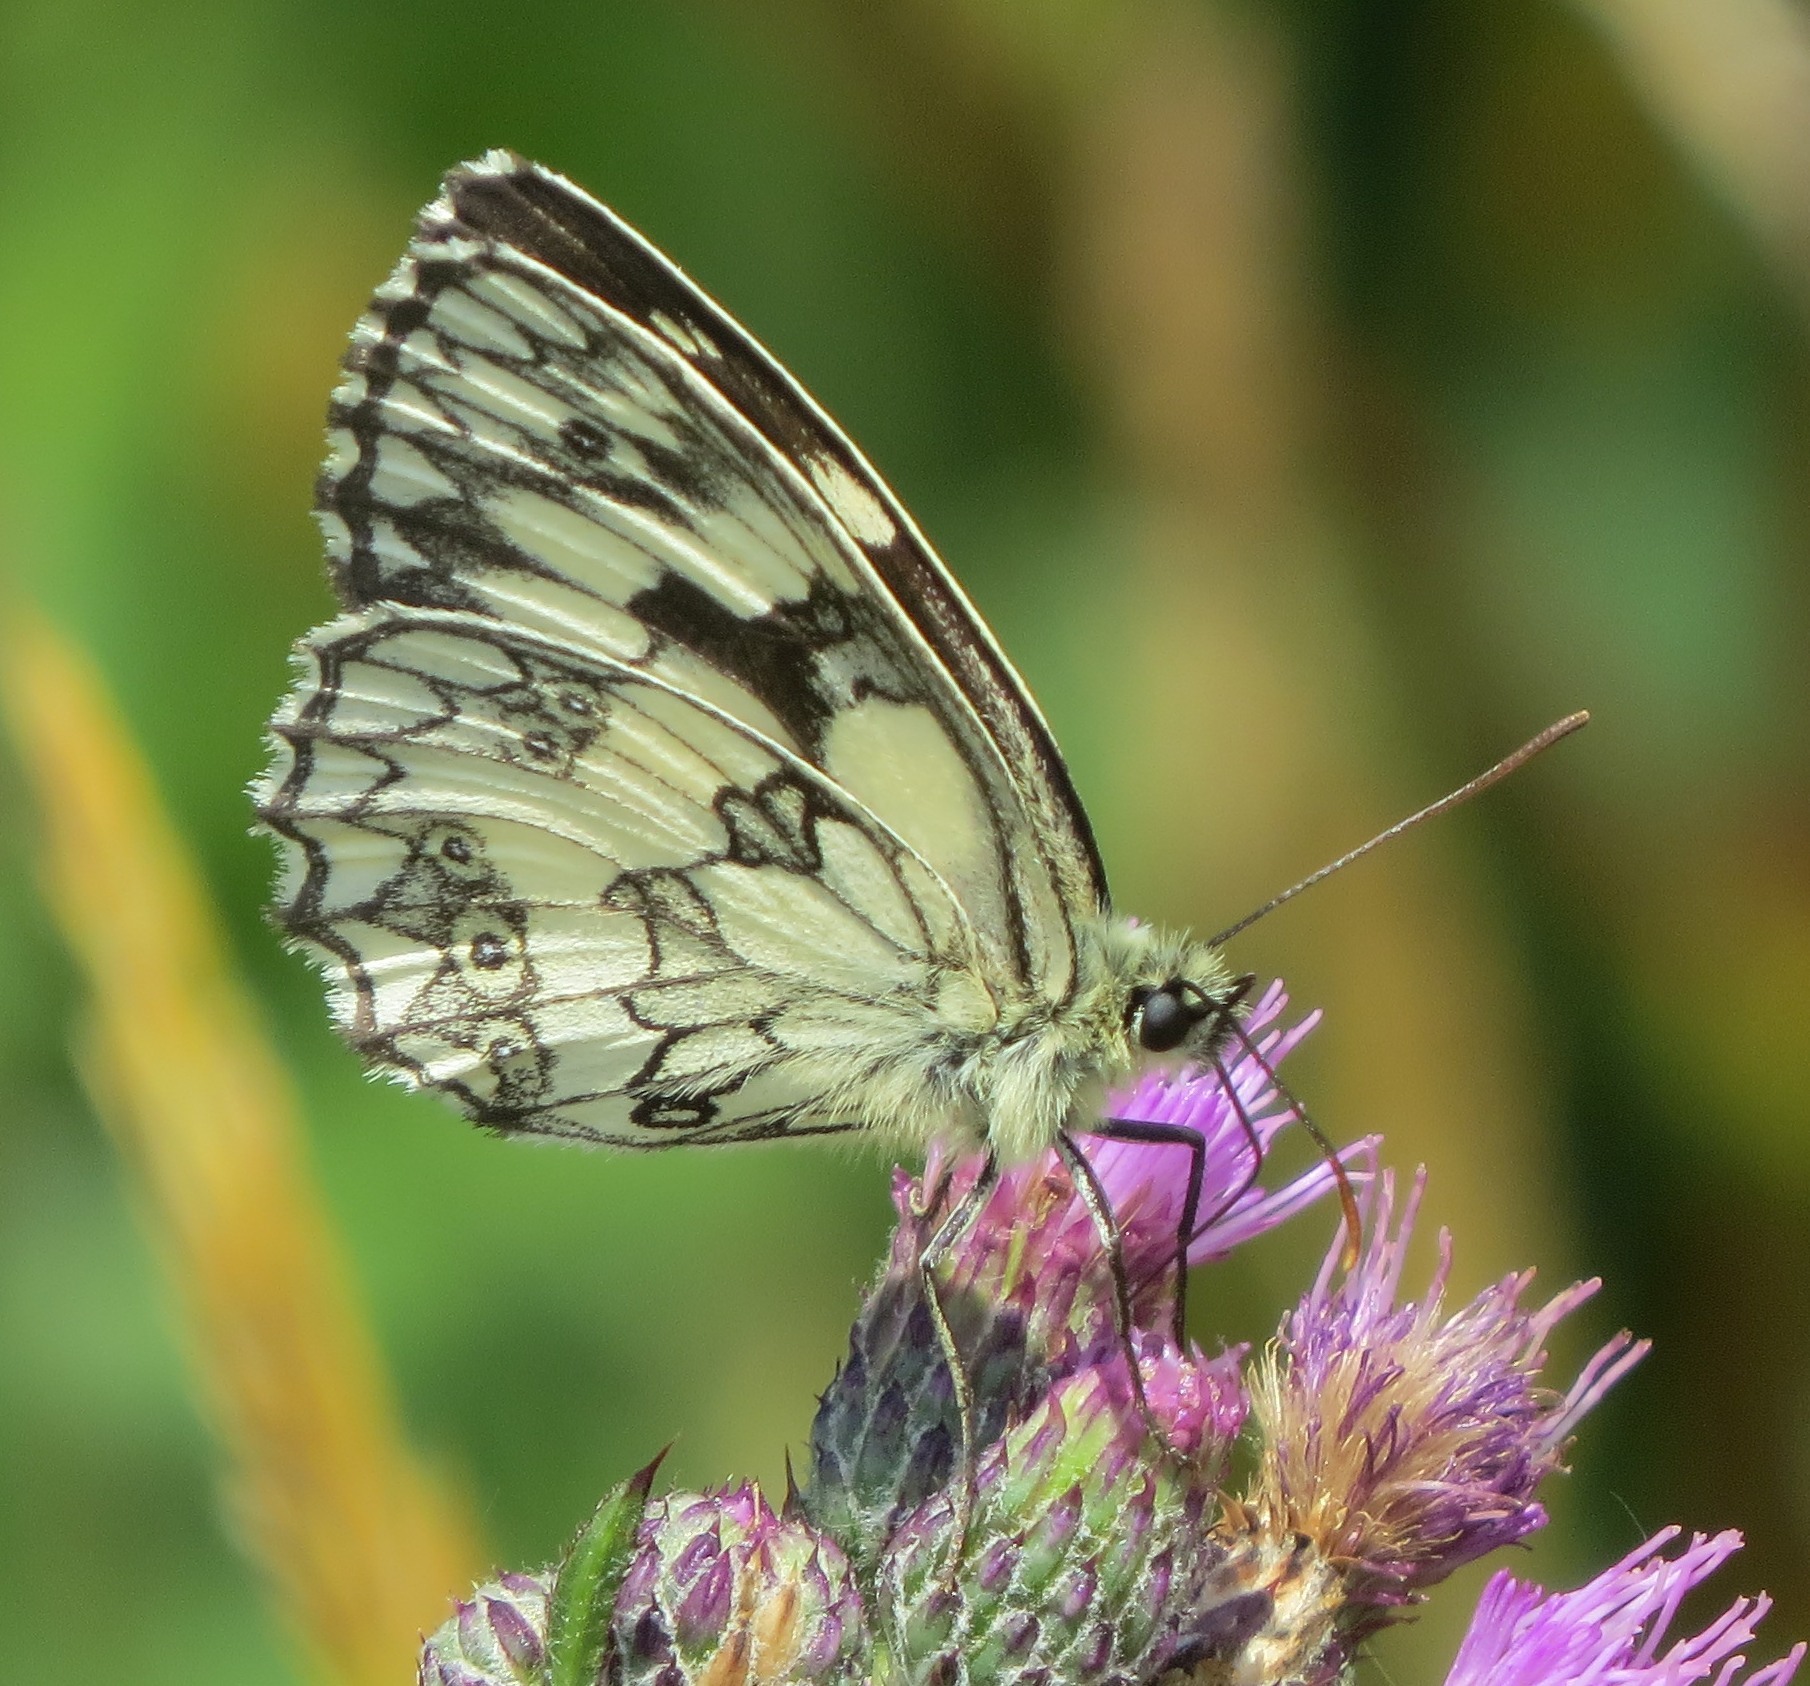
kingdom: Animalia
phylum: Arthropoda
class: Insecta
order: Lepidoptera
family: Nymphalidae
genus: Melanargia
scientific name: Melanargia galathea
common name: Marbled white
